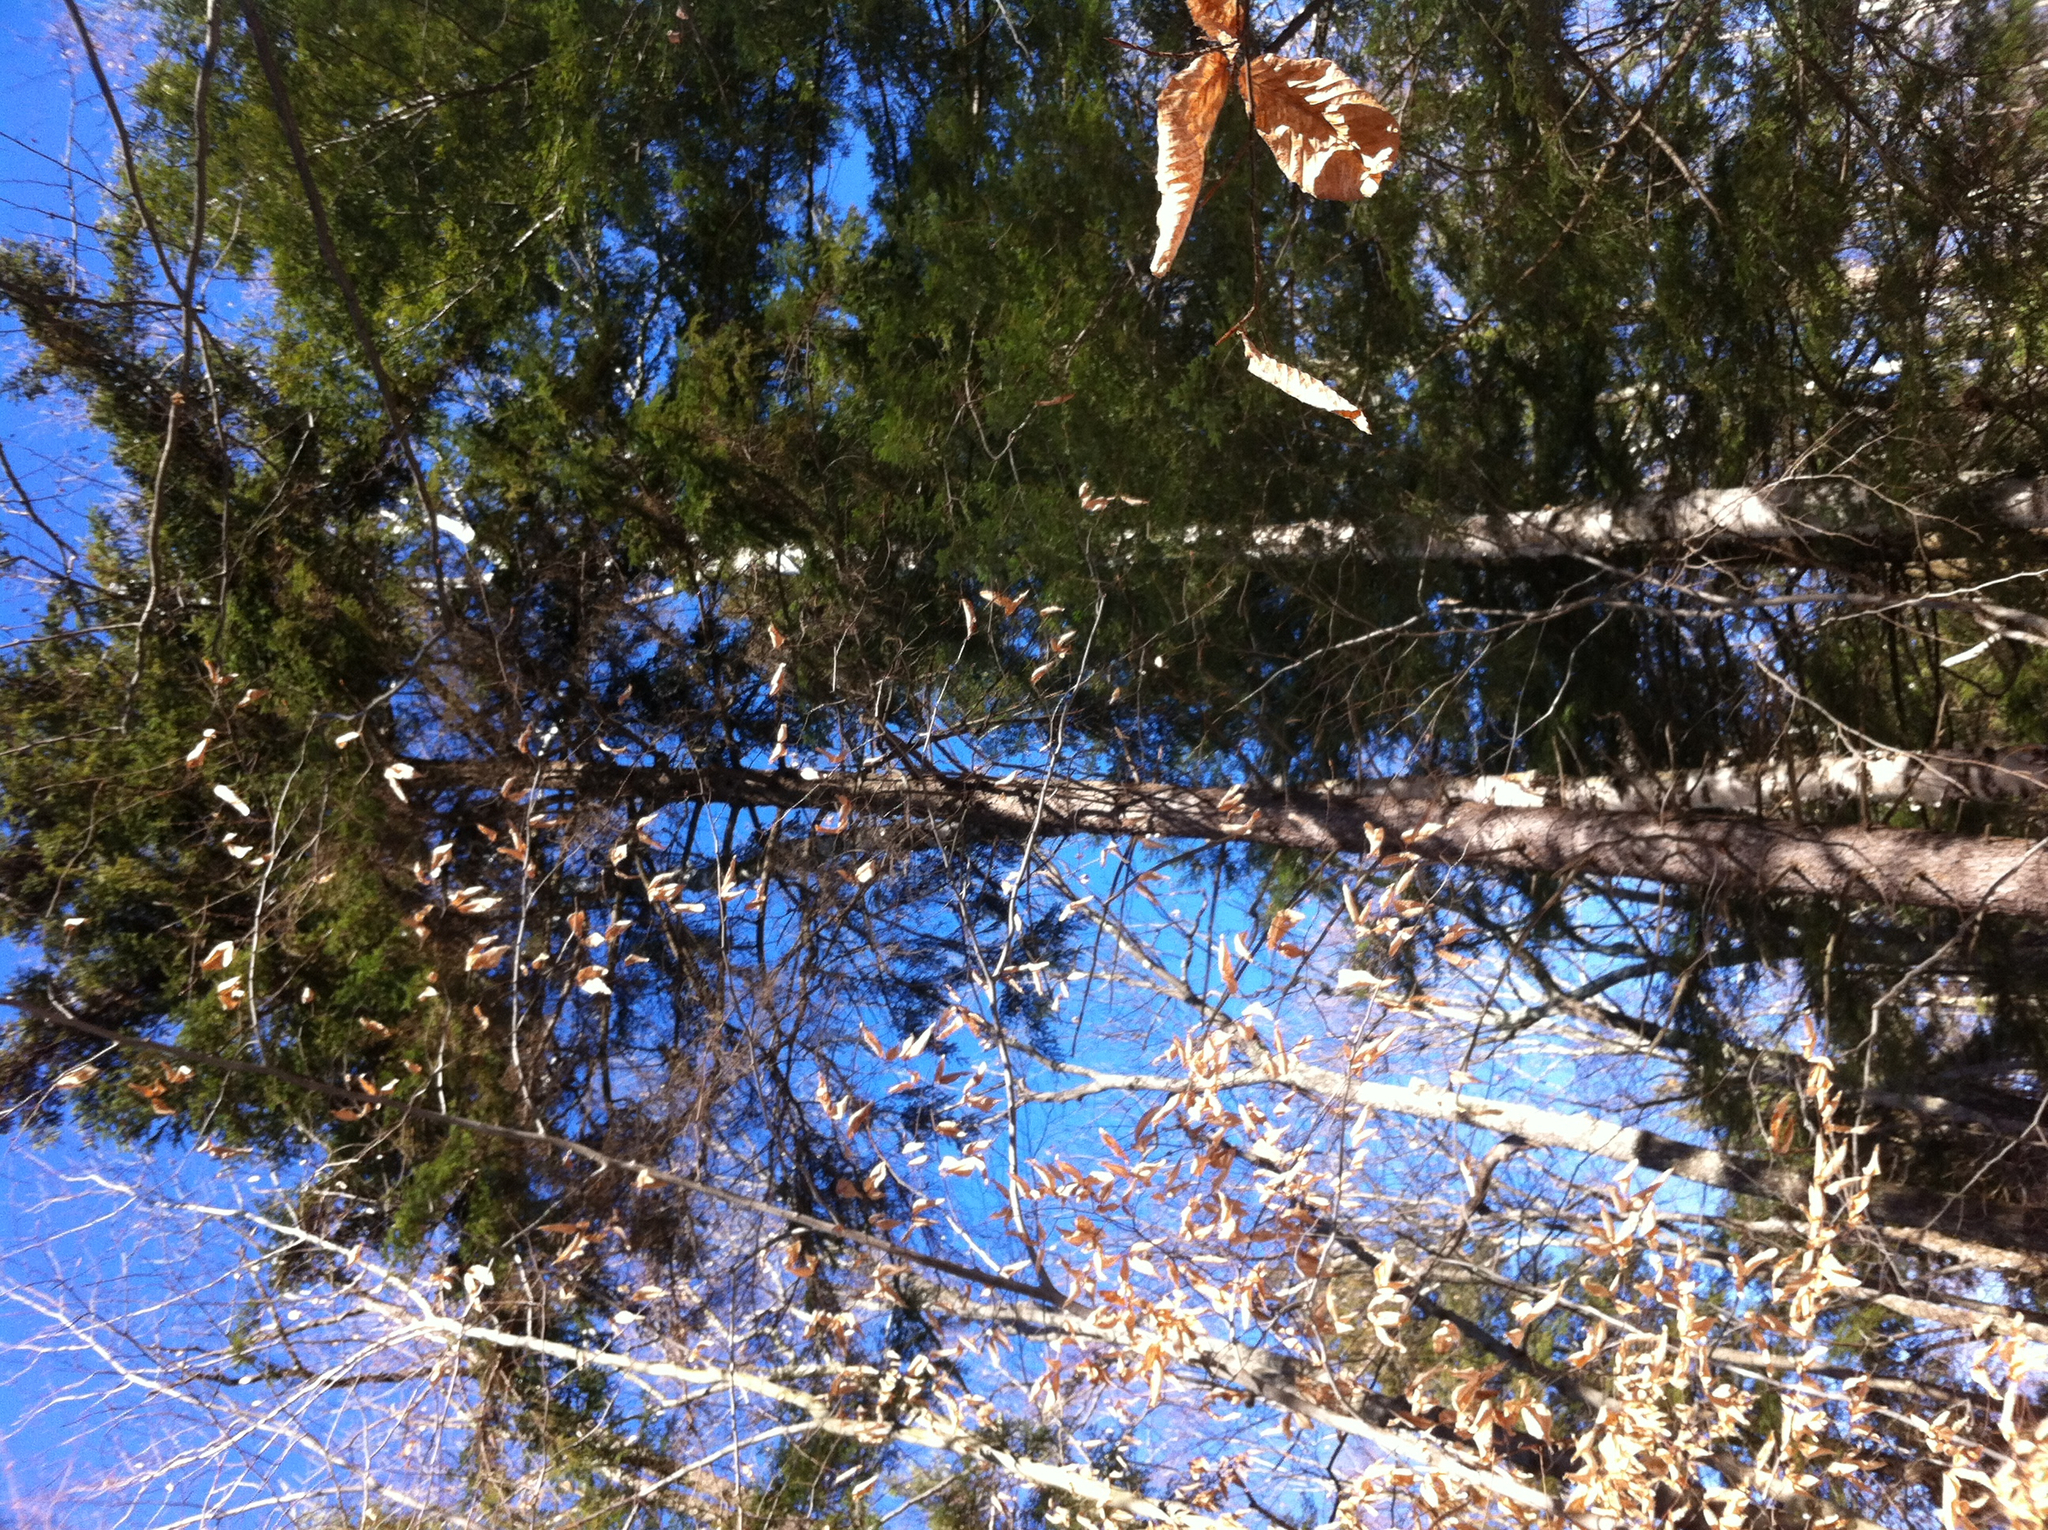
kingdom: Plantae
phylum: Tracheophyta
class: Magnoliopsida
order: Fagales
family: Fagaceae
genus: Fagus
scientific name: Fagus grandifolia
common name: American beech
